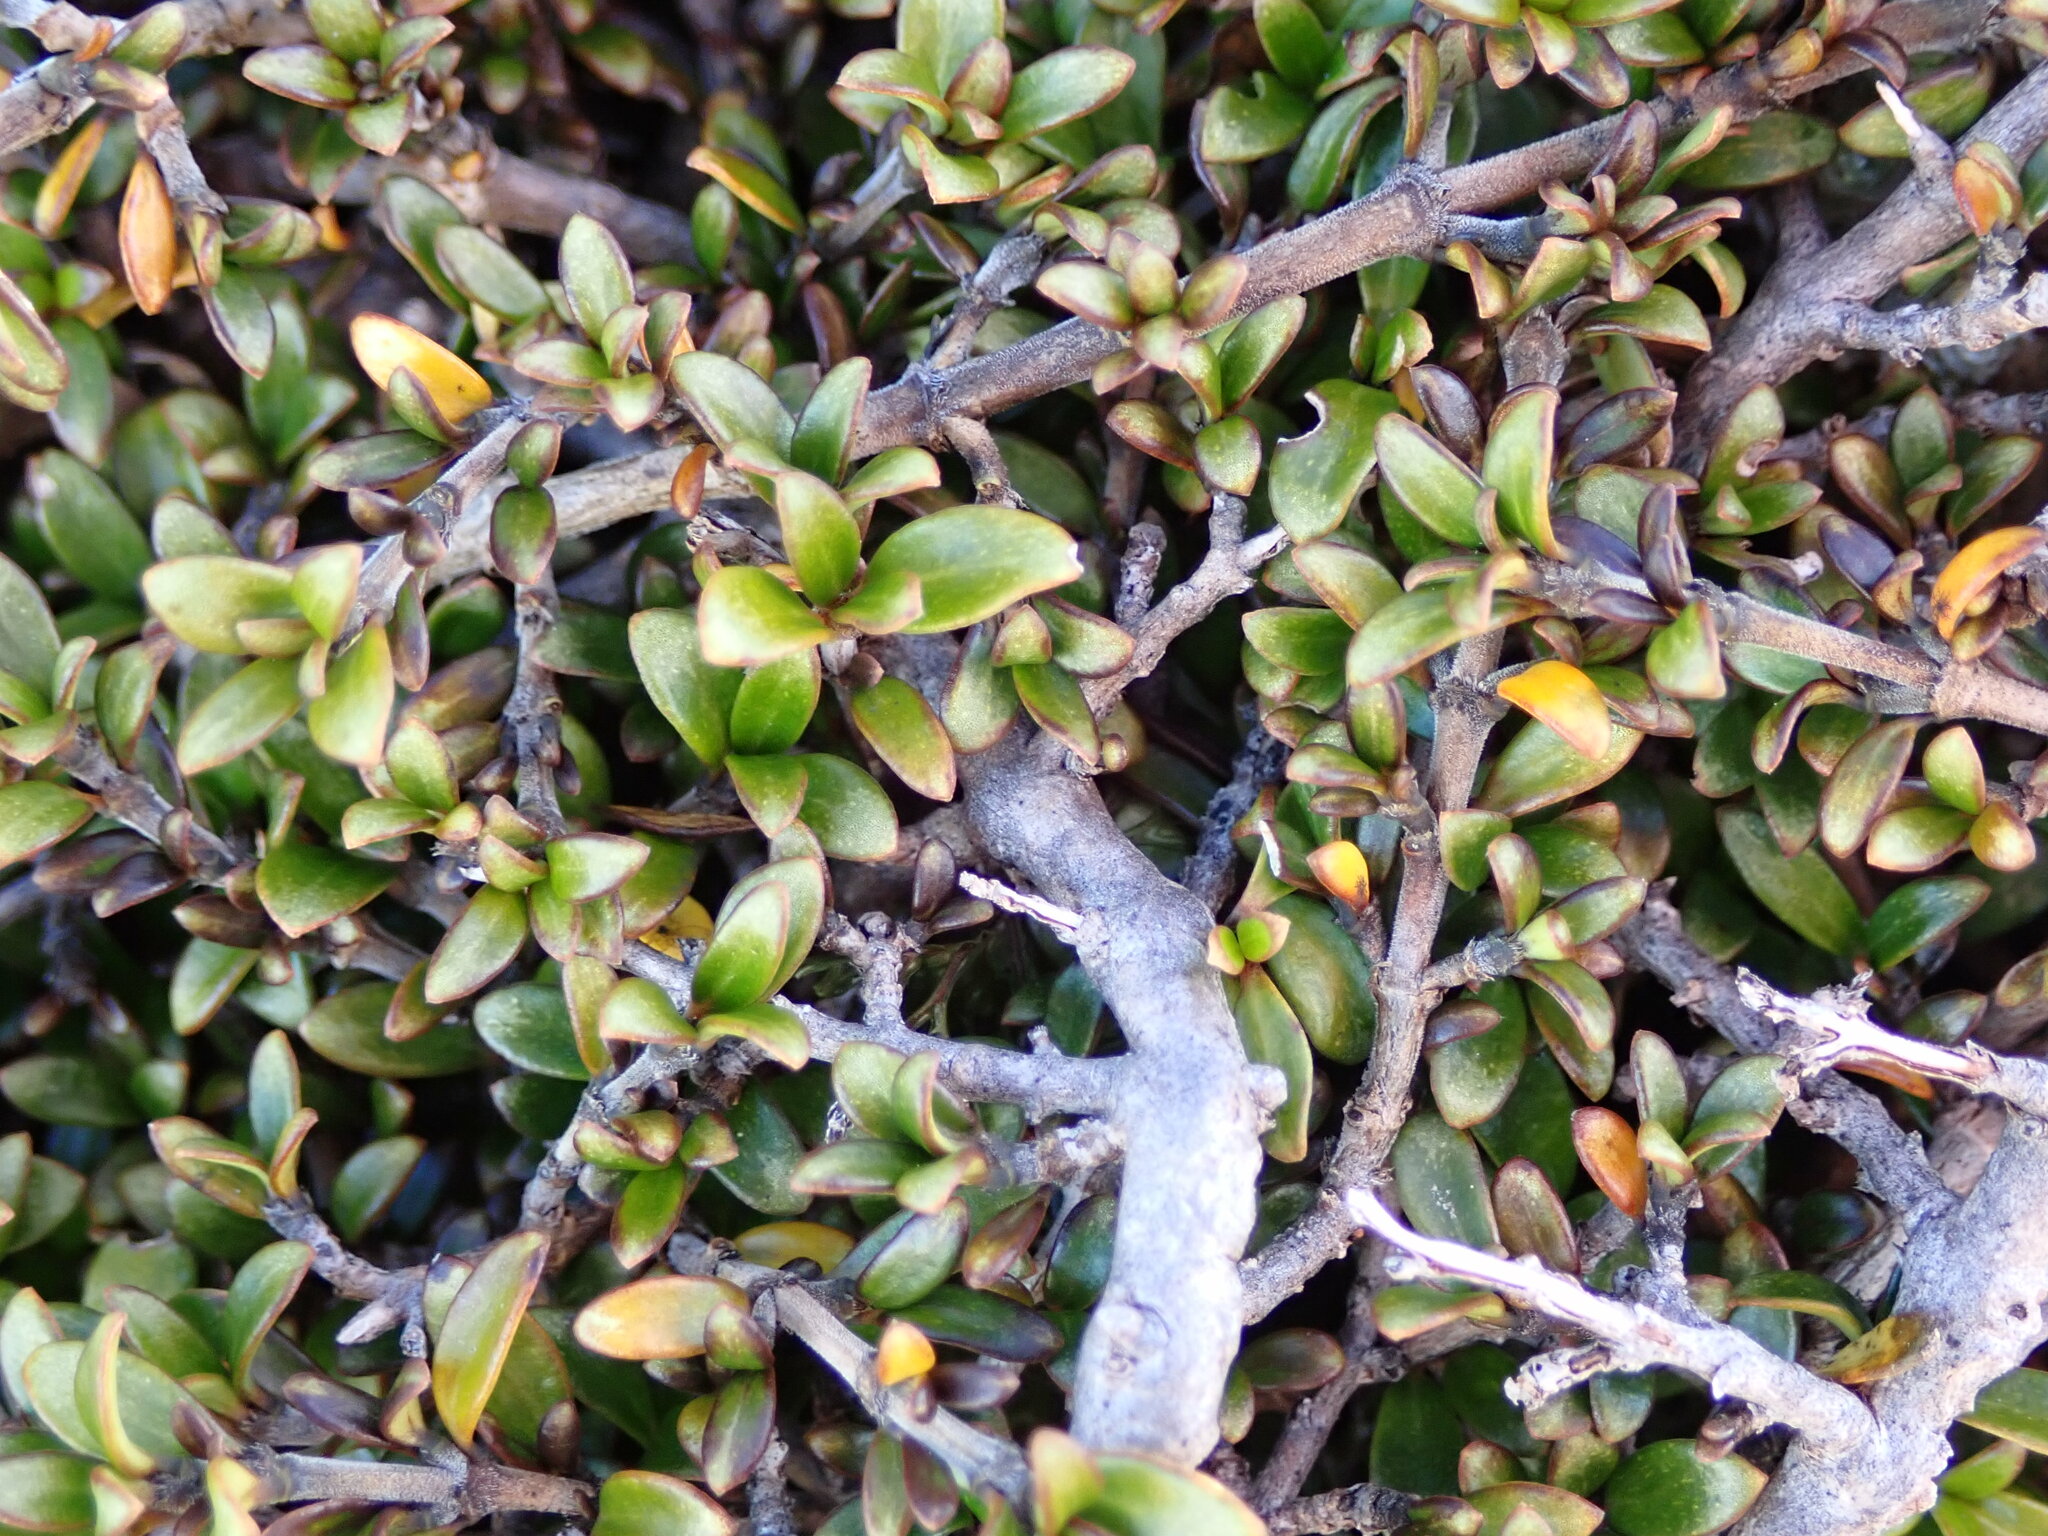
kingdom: Plantae
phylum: Tracheophyta
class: Magnoliopsida
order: Gentianales
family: Rubiaceae
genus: Coprosma
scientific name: Coprosma depressa
